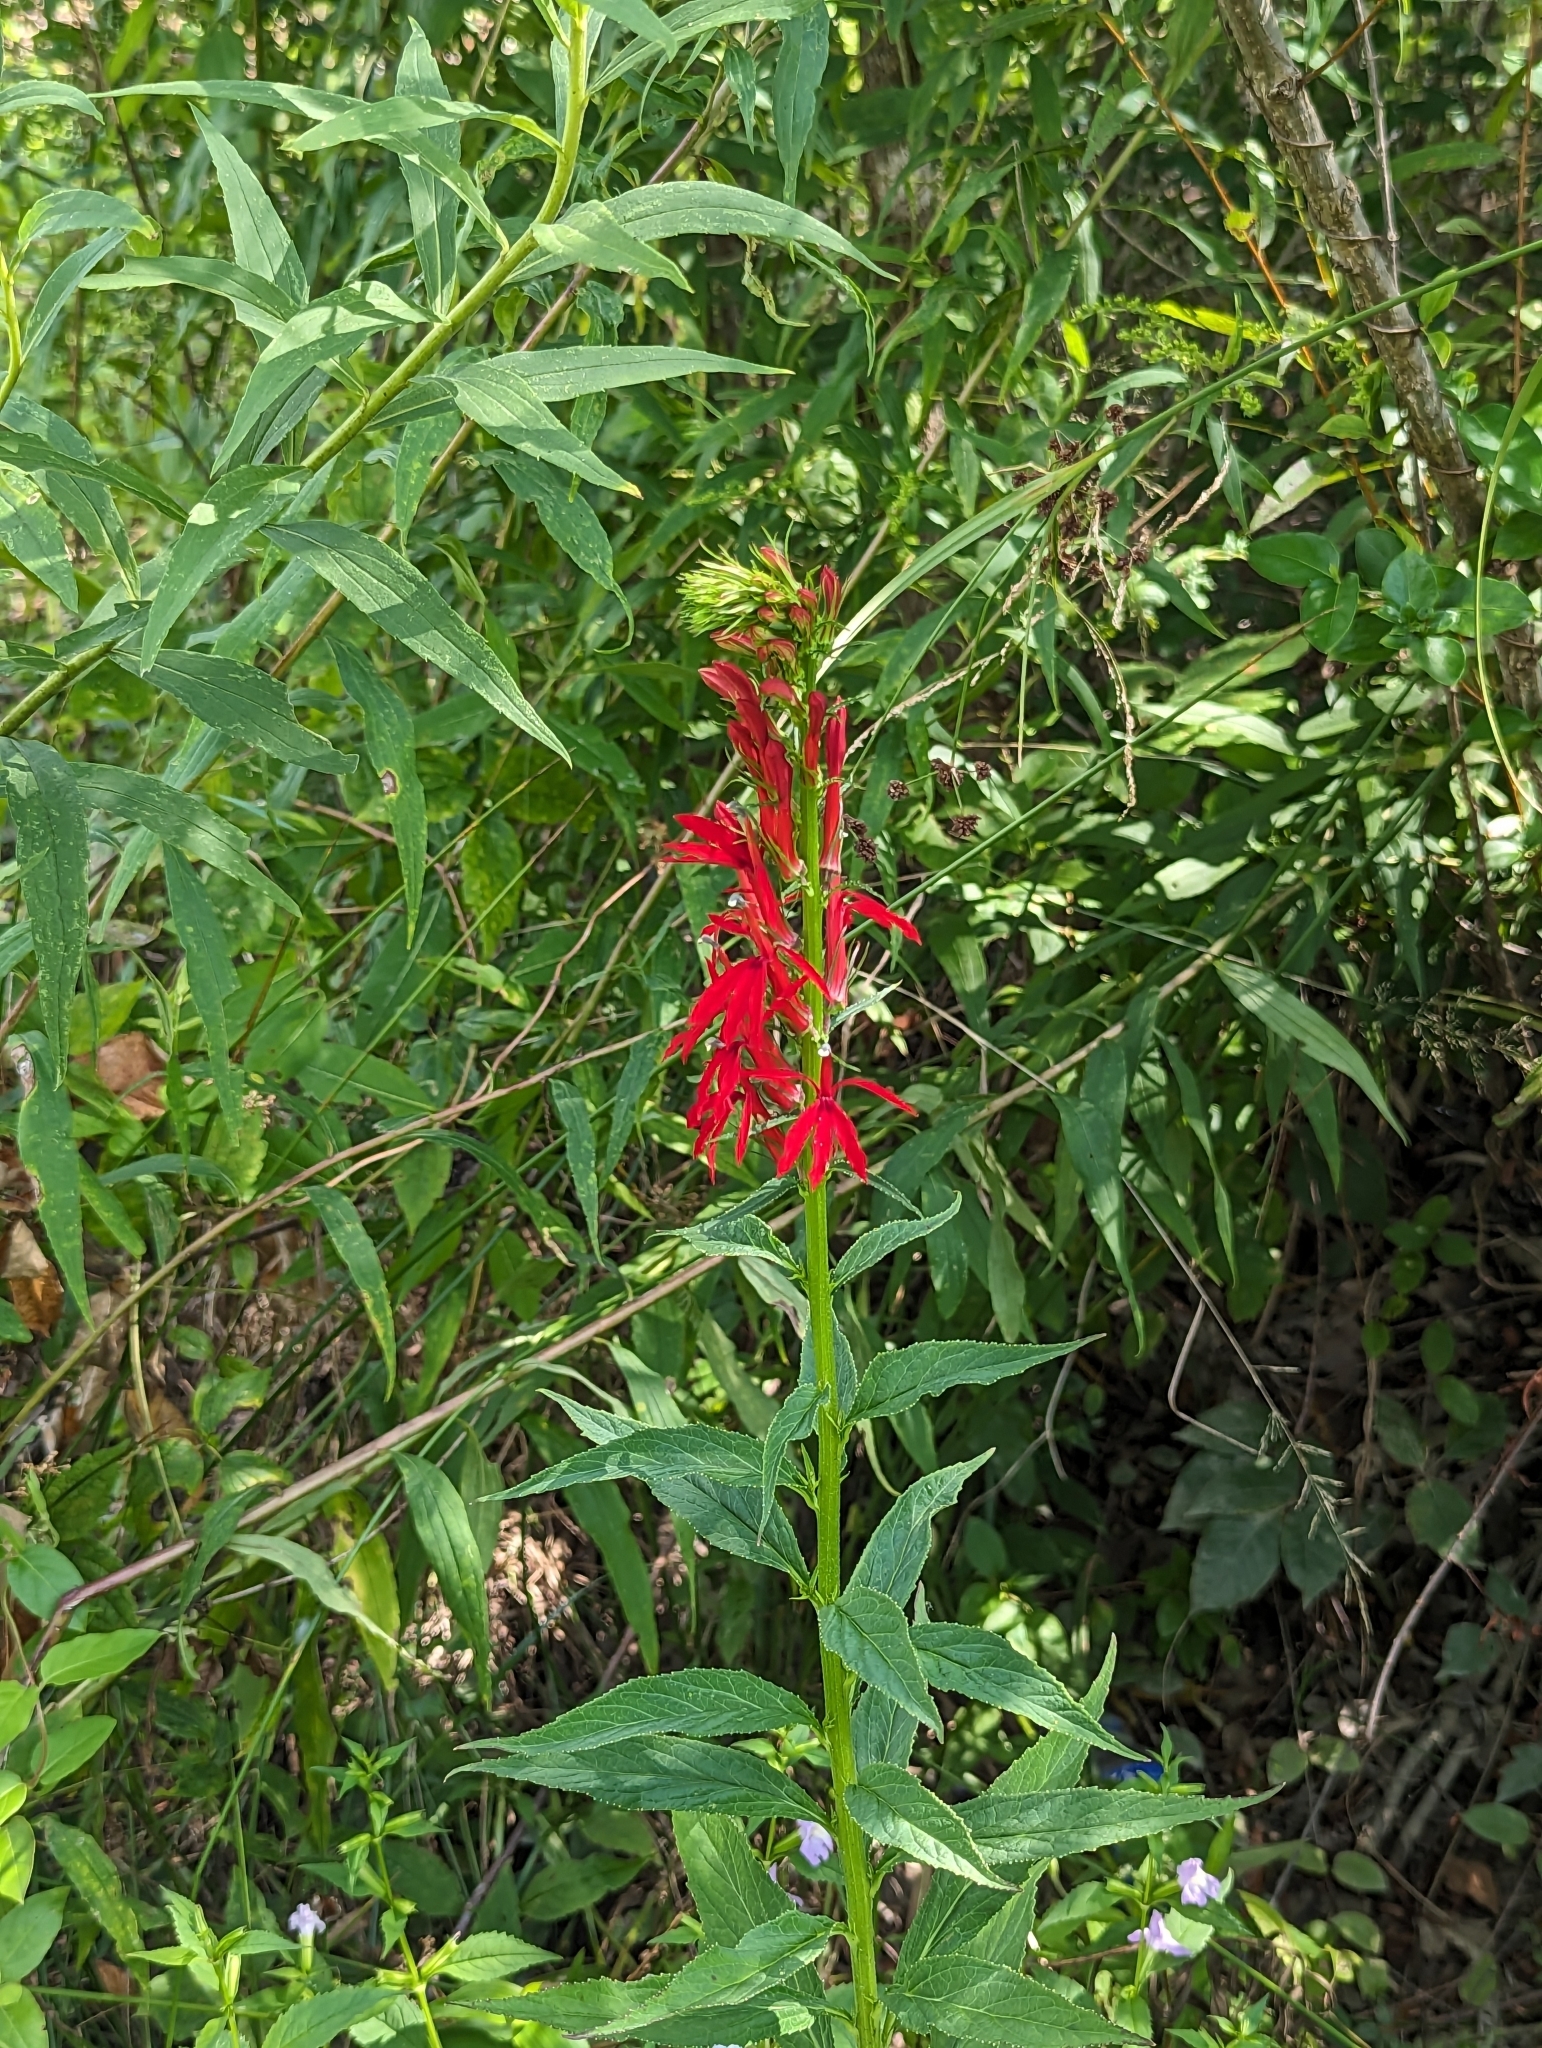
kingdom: Plantae
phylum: Tracheophyta
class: Magnoliopsida
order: Asterales
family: Campanulaceae
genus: Lobelia
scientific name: Lobelia cardinalis
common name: Cardinal flower
